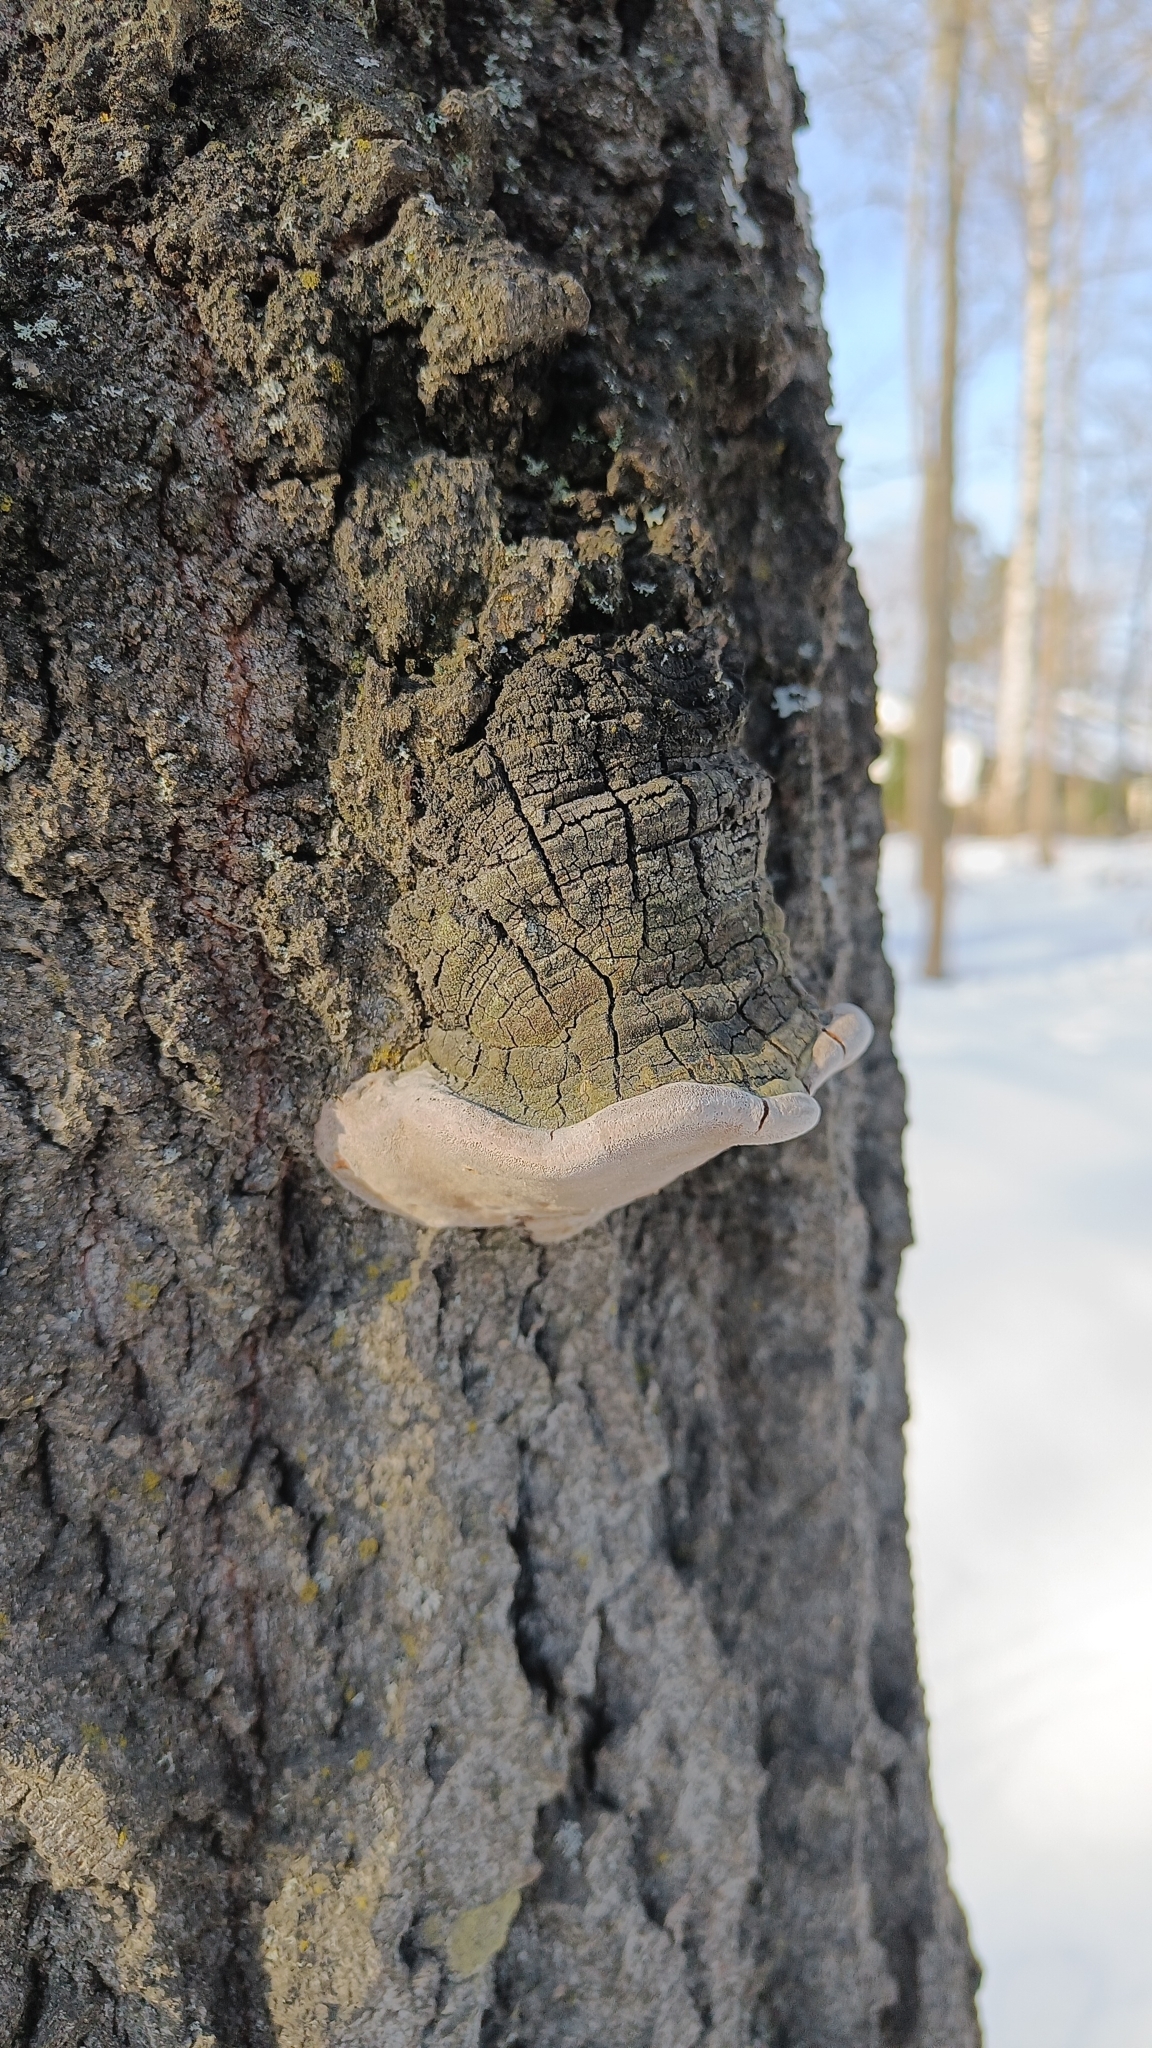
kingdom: Fungi
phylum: Basidiomycota
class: Agaricomycetes
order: Hymenochaetales
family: Hymenochaetaceae
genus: Phellinus
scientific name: Phellinus tremulae
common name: Aspen bracket
